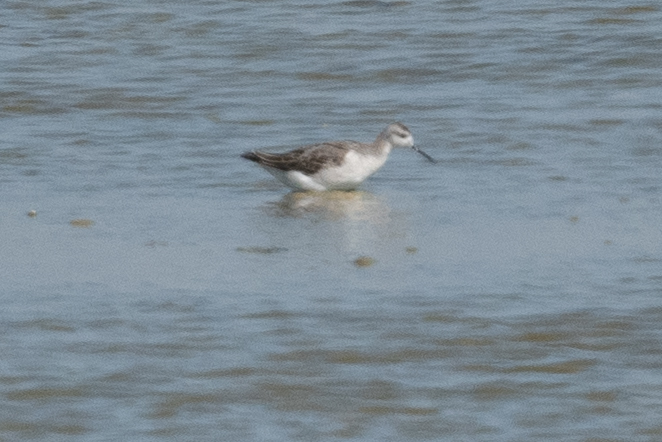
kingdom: Animalia
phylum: Chordata
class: Aves
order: Charadriiformes
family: Scolopacidae
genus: Phalaropus
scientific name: Phalaropus tricolor
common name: Wilson's phalarope
